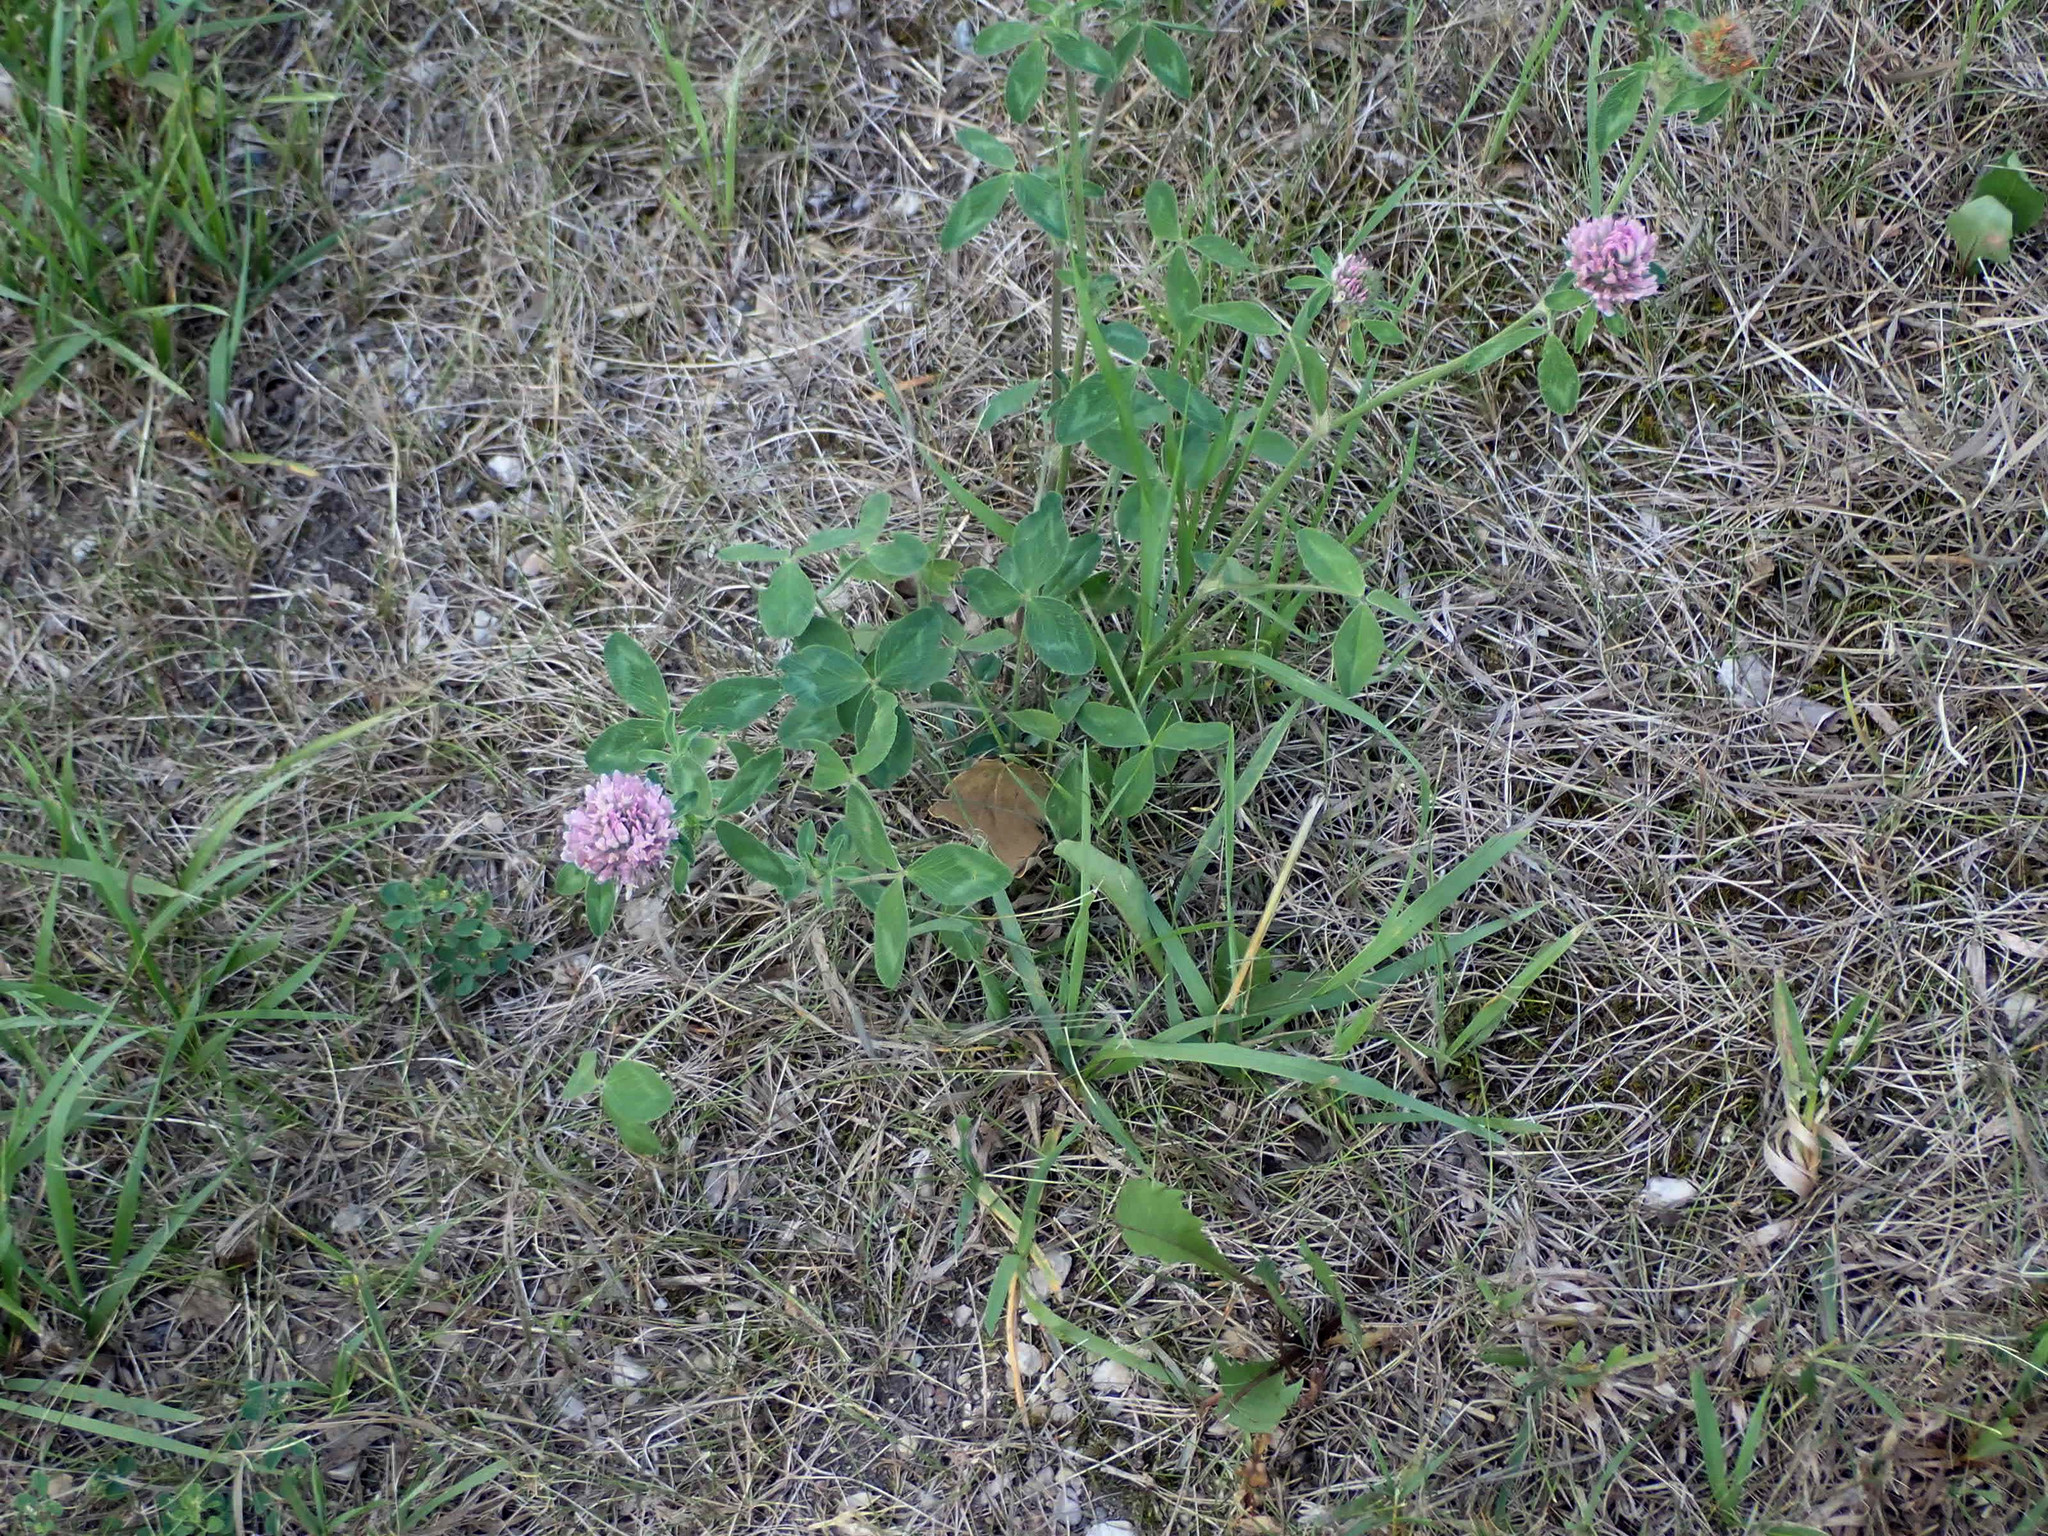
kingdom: Plantae
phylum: Tracheophyta
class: Magnoliopsida
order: Fabales
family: Fabaceae
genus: Trifolium
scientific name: Trifolium pratense
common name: Red clover
